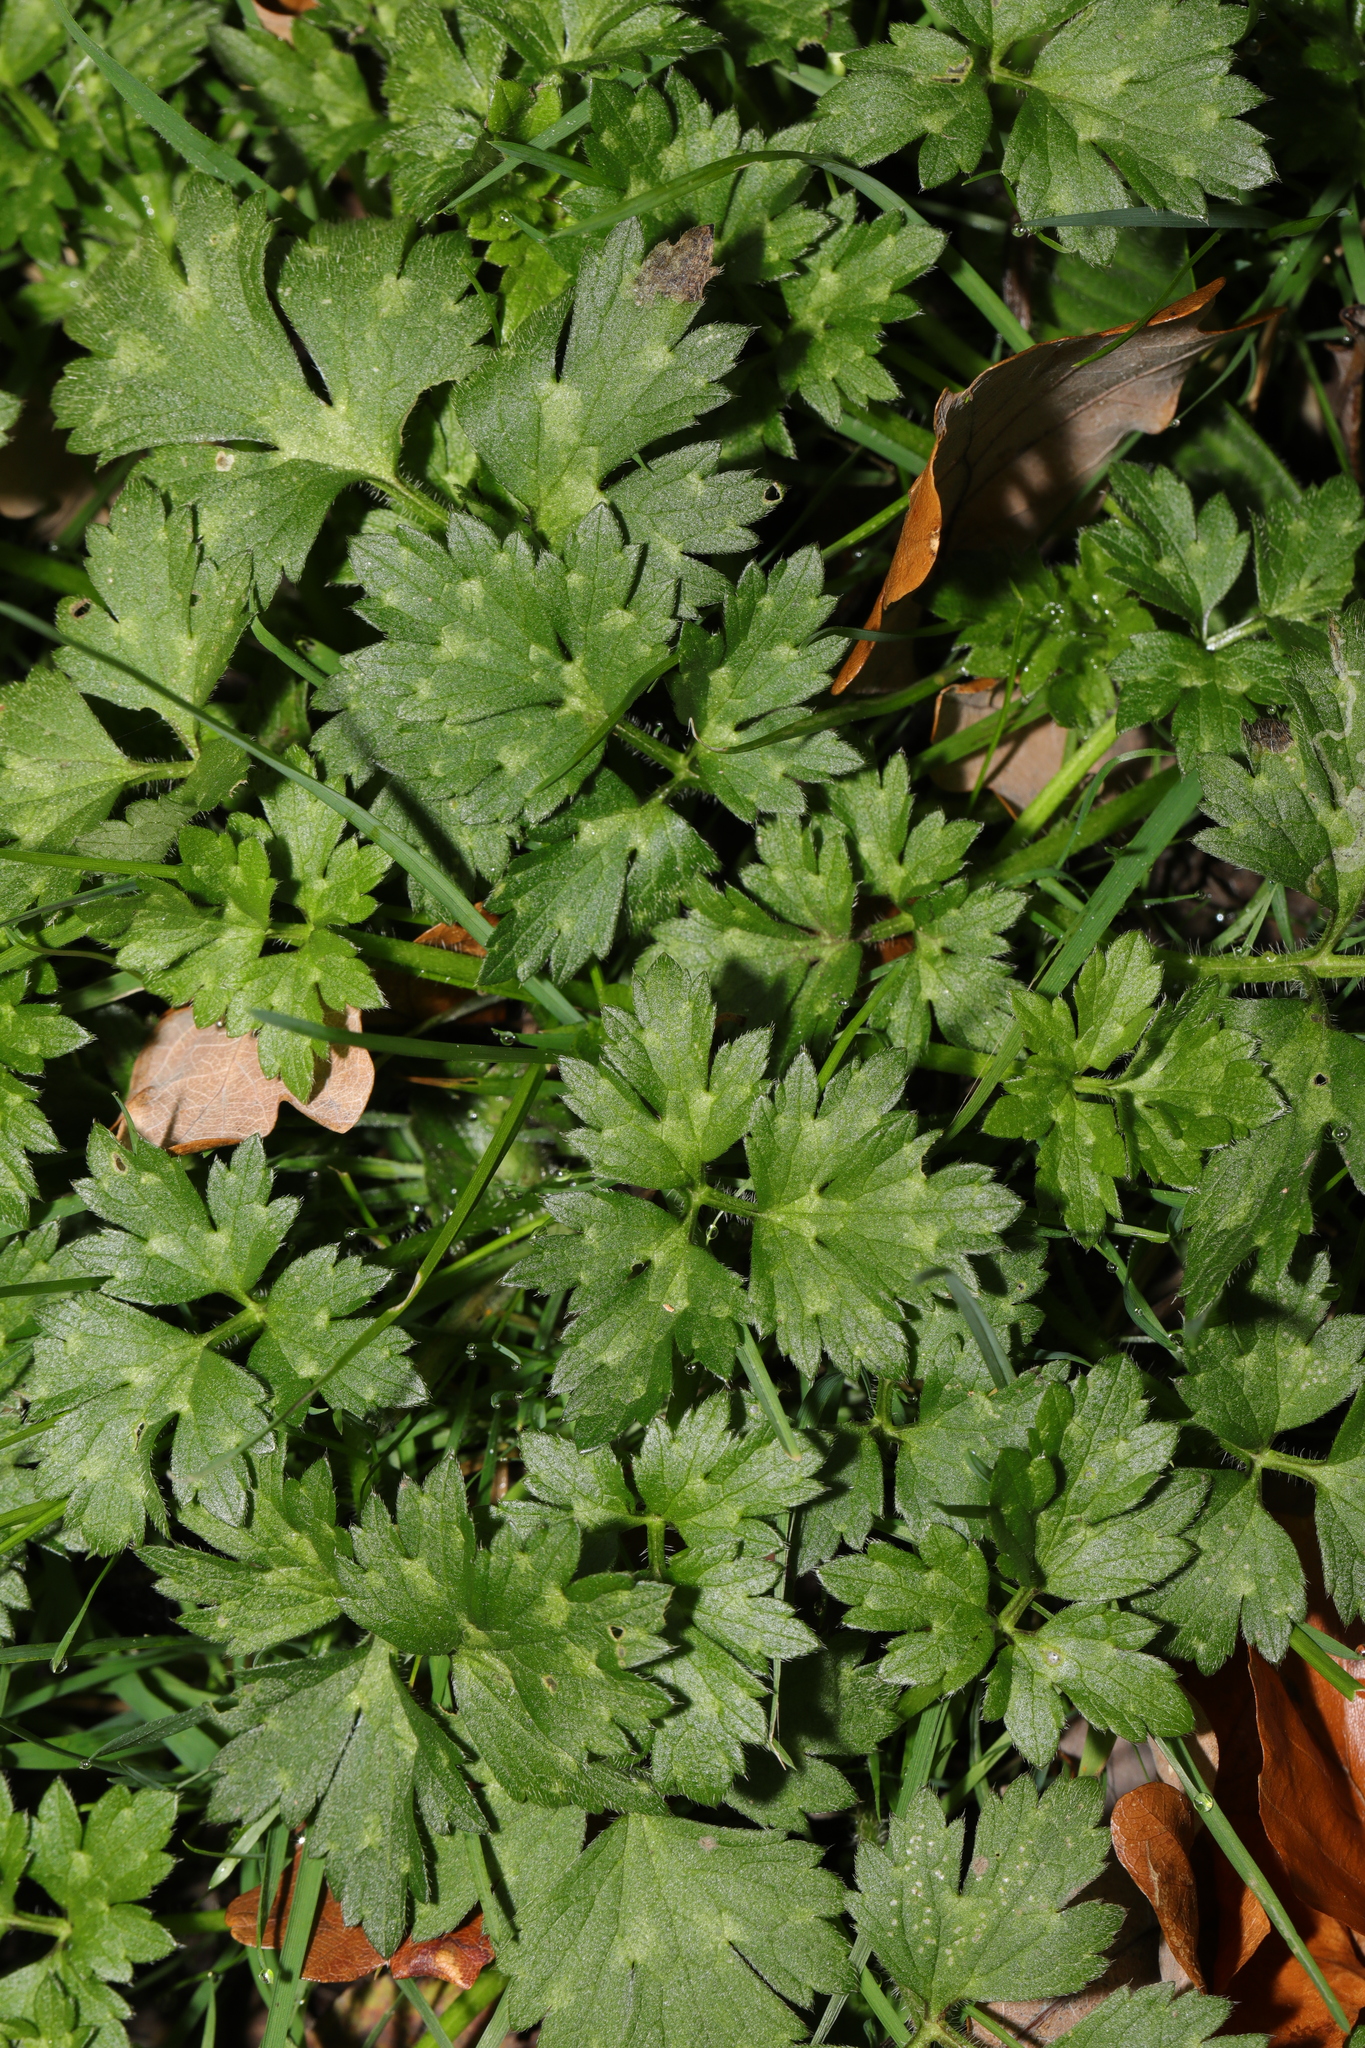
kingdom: Plantae
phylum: Tracheophyta
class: Magnoliopsida
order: Ranunculales
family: Ranunculaceae
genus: Ranunculus
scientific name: Ranunculus repens
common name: Creeping buttercup
